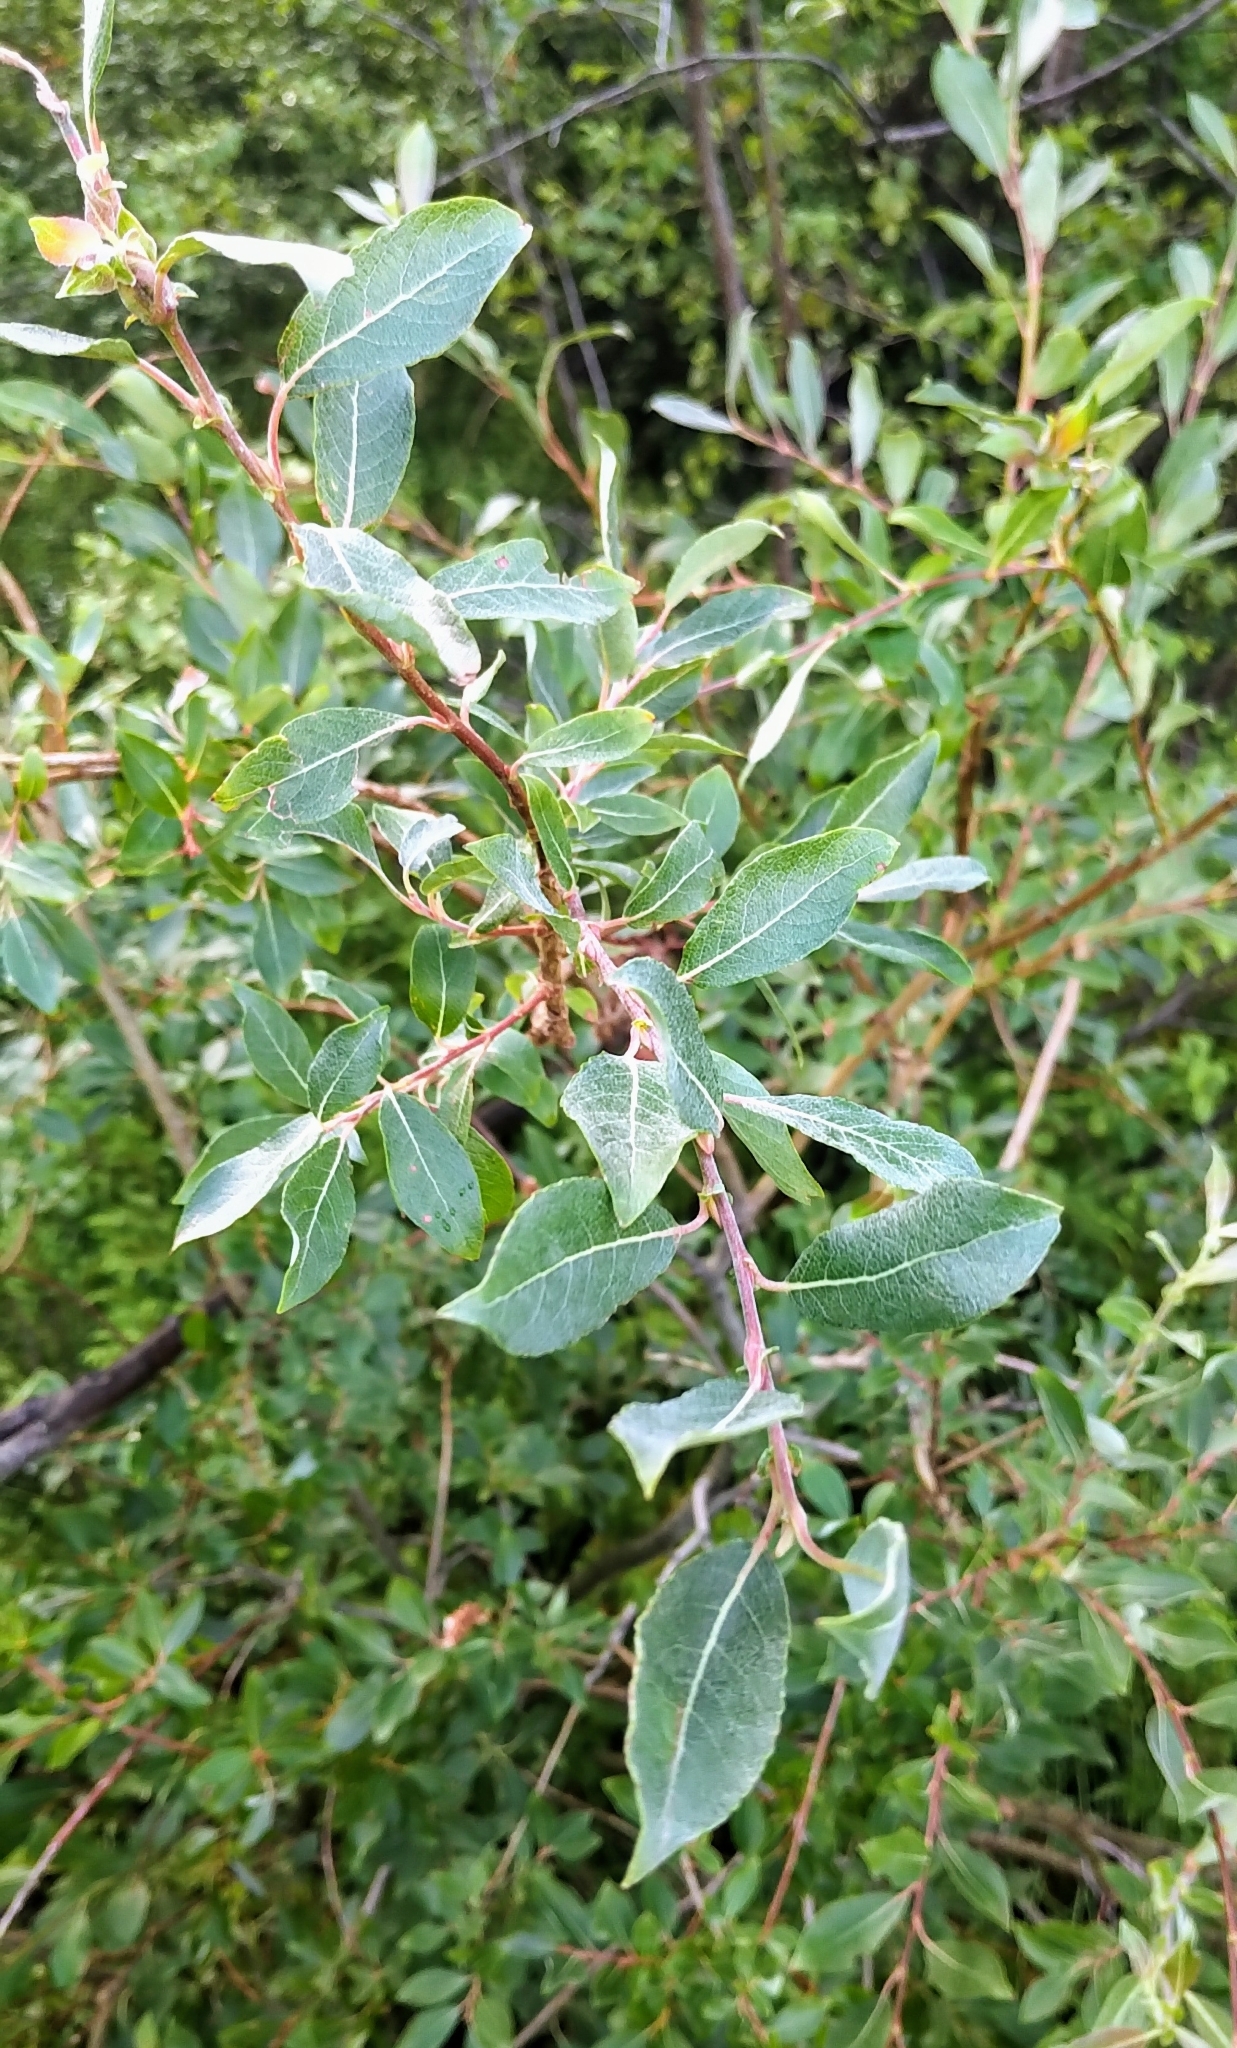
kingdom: Plantae
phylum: Tracheophyta
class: Magnoliopsida
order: Malpighiales
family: Salicaceae
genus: Salix
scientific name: Salix bebbiana
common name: Bebb's willow
